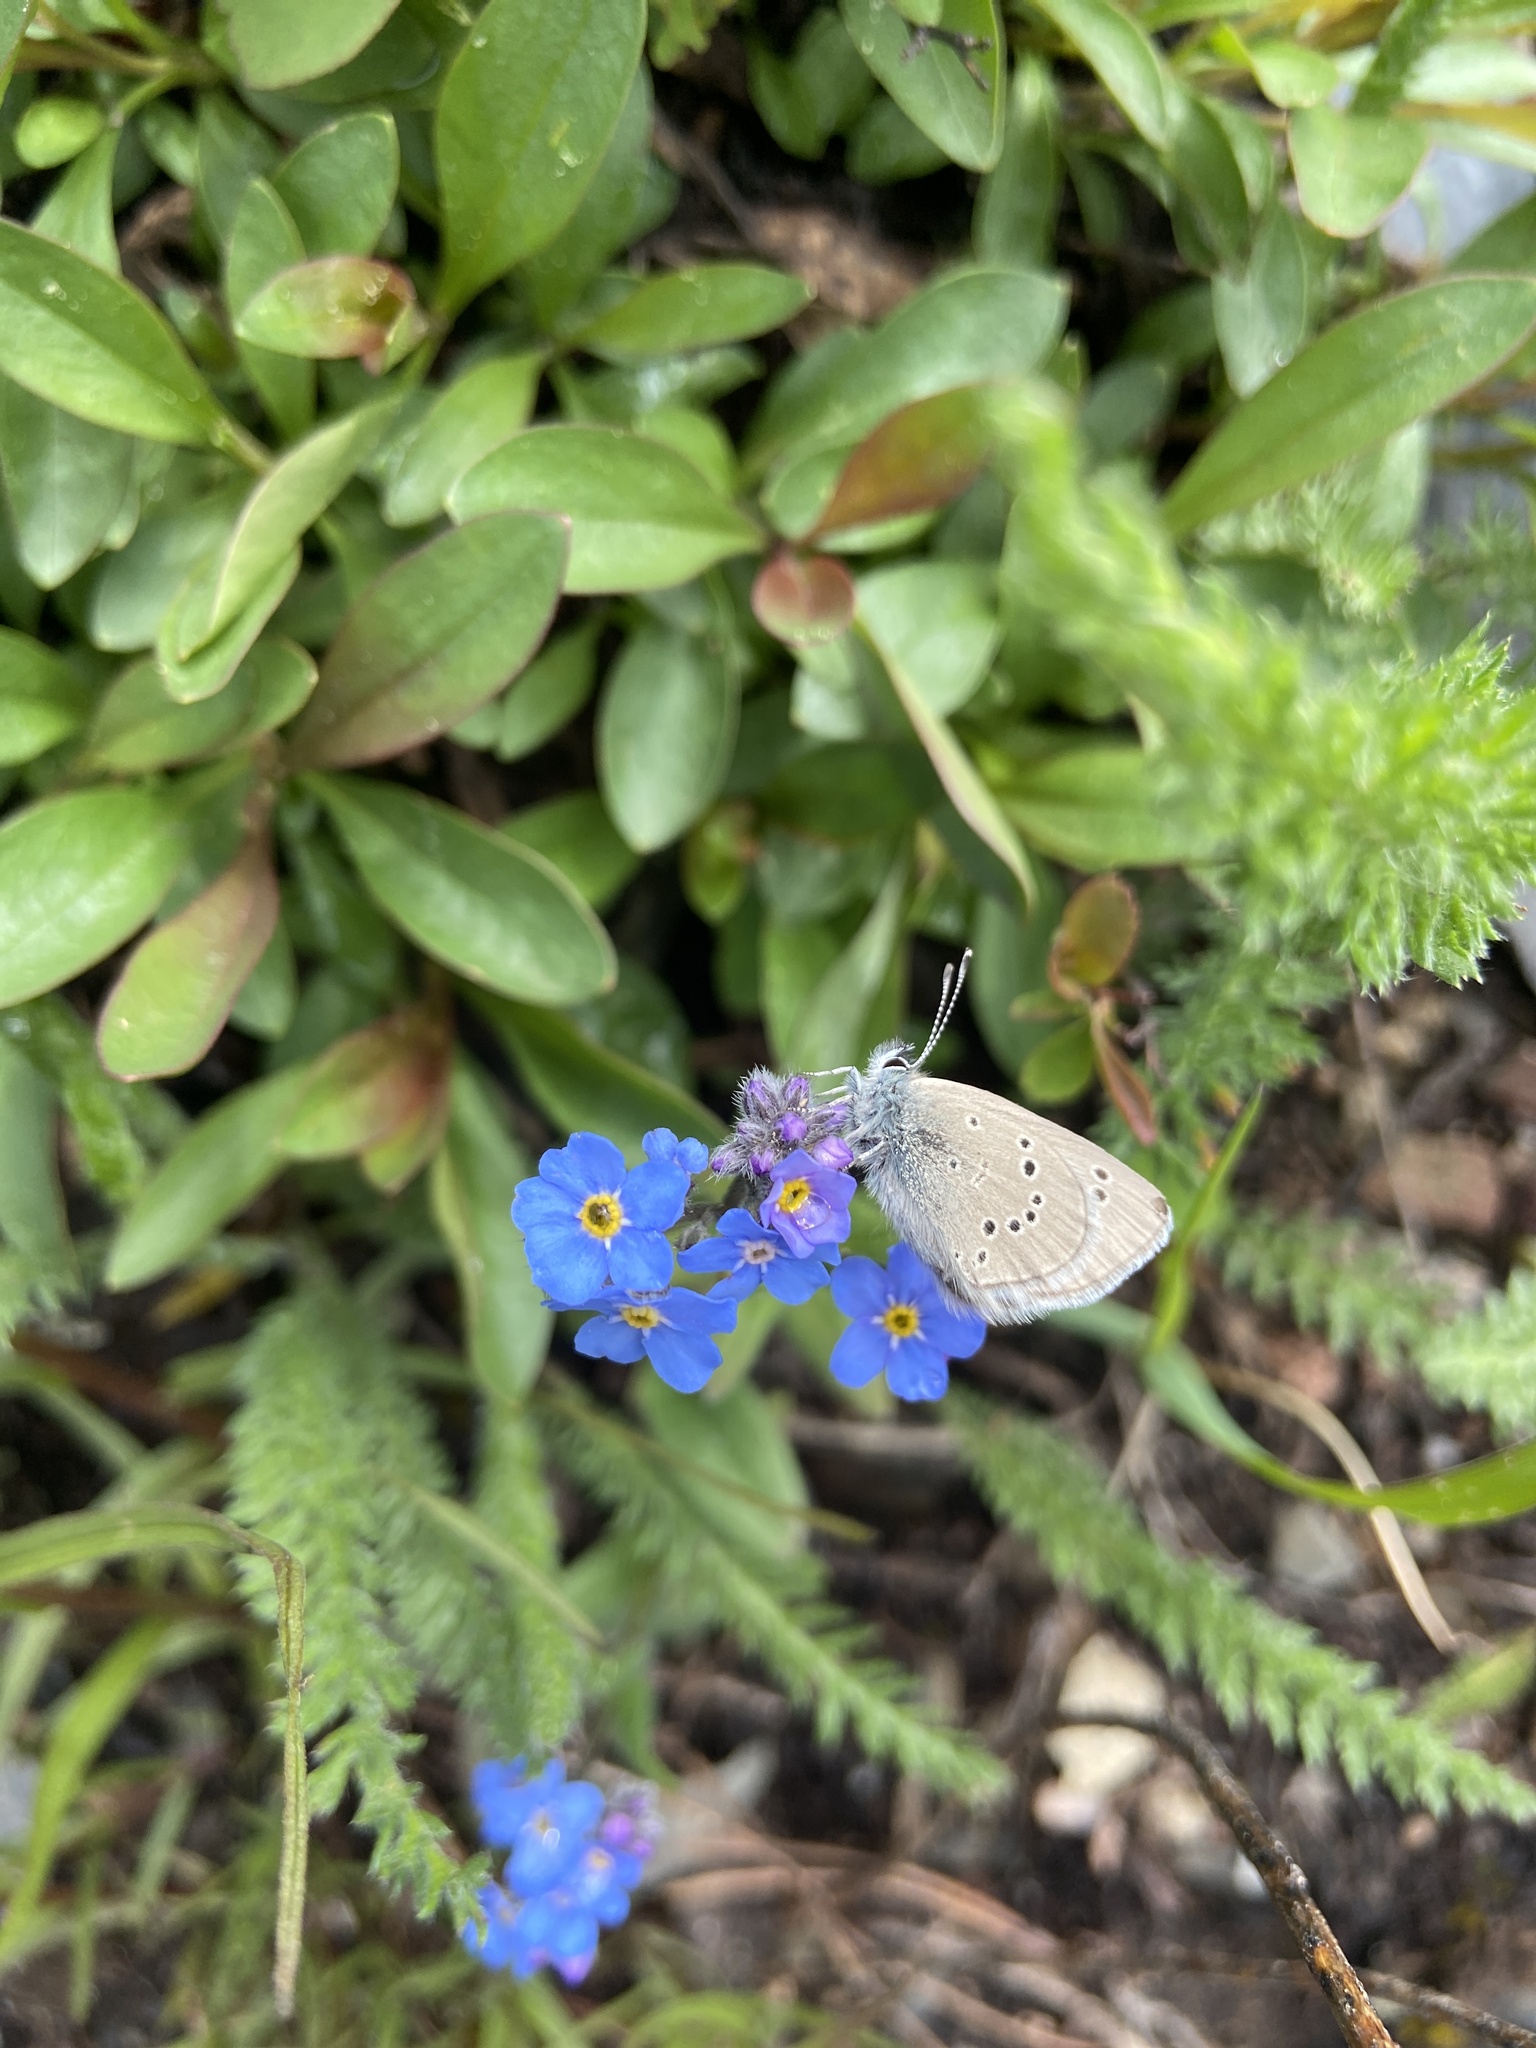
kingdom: Animalia
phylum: Arthropoda
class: Insecta
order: Lepidoptera
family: Lycaenidae
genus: Glaucopsyche
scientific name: Glaucopsyche lygdamus
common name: Silvery blue
